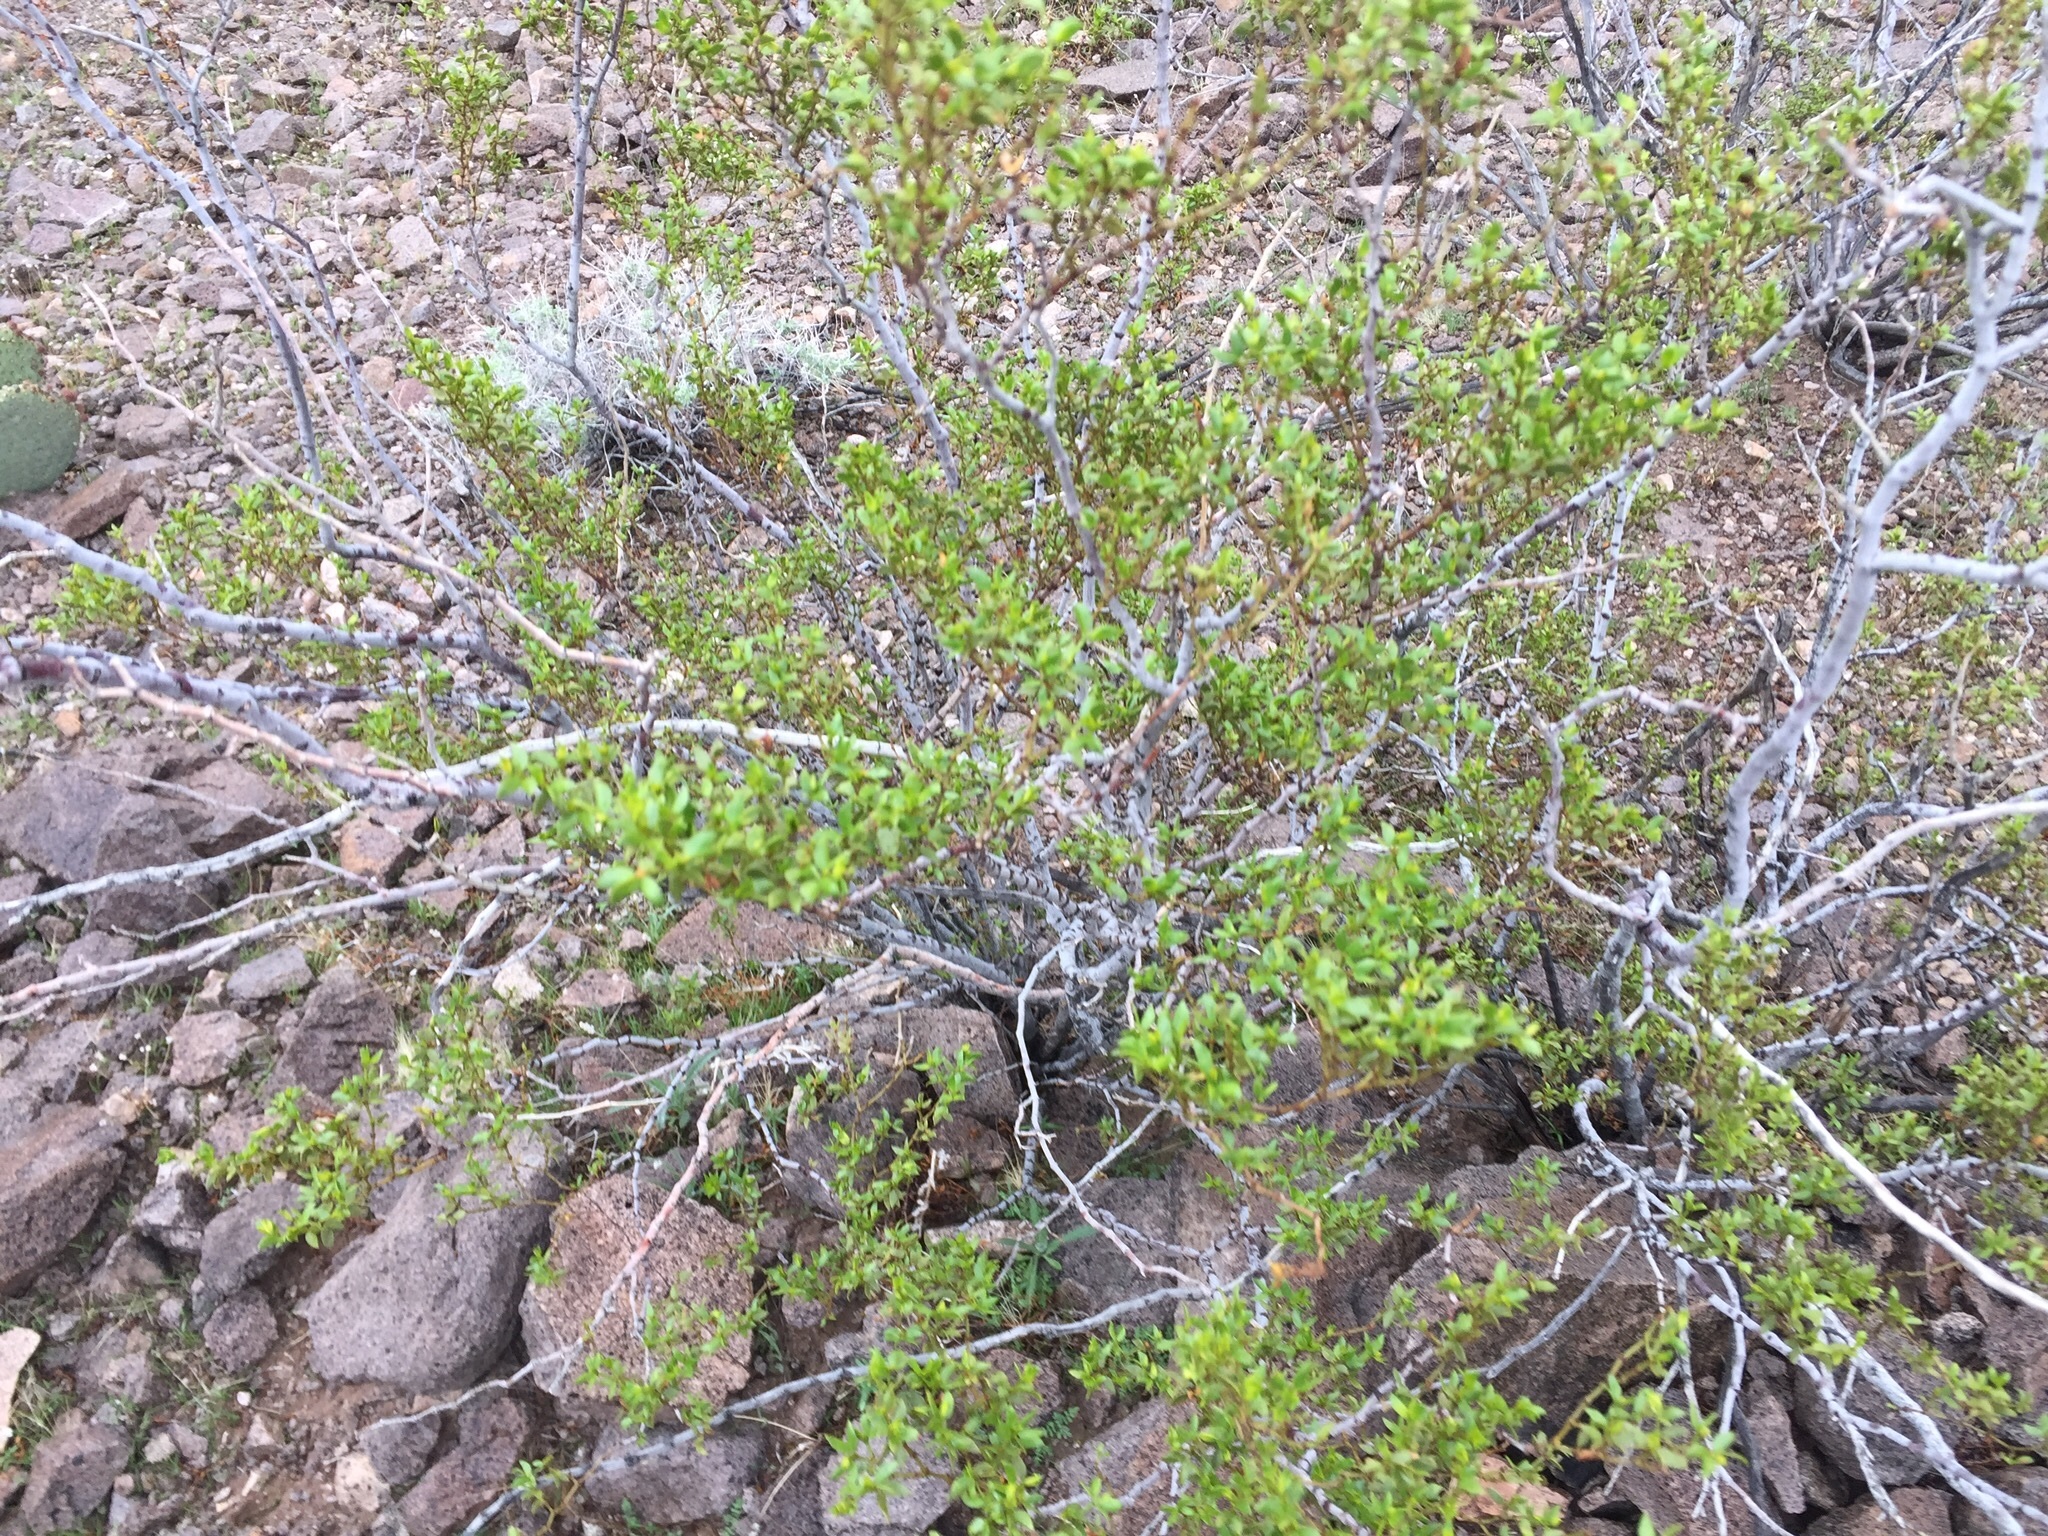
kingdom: Plantae
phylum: Tracheophyta
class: Magnoliopsida
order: Zygophyllales
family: Zygophyllaceae
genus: Larrea
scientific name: Larrea tridentata
